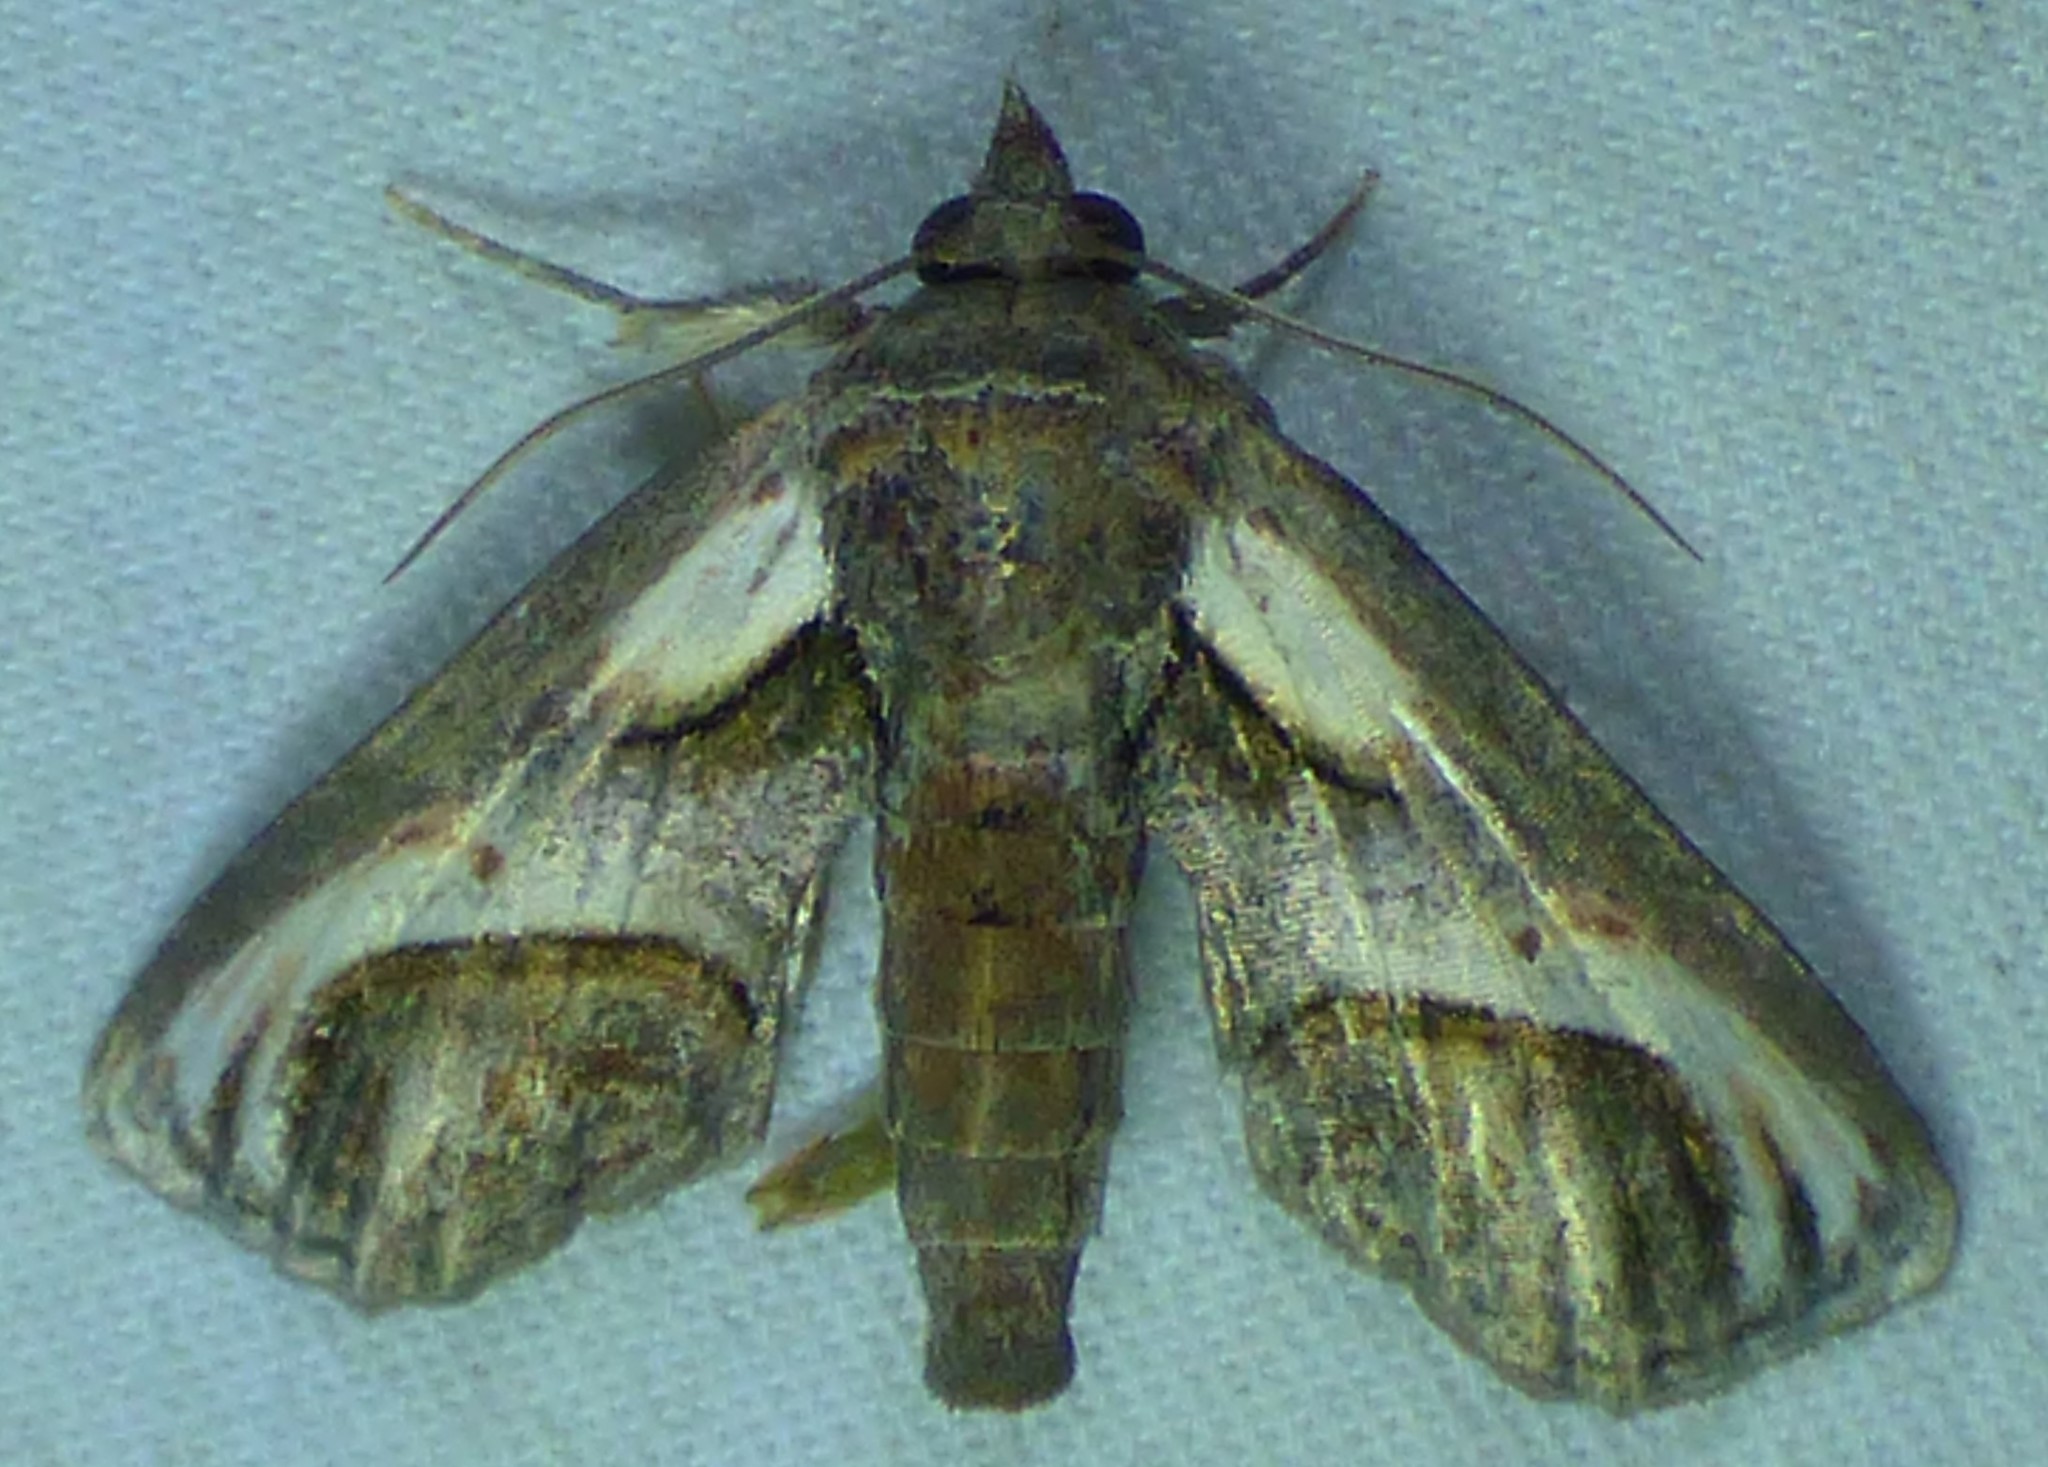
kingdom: Animalia
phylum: Arthropoda
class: Insecta
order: Lepidoptera
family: Euteliidae
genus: Paectes
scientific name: Paectes oculatrix
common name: Eyed paectes moth
